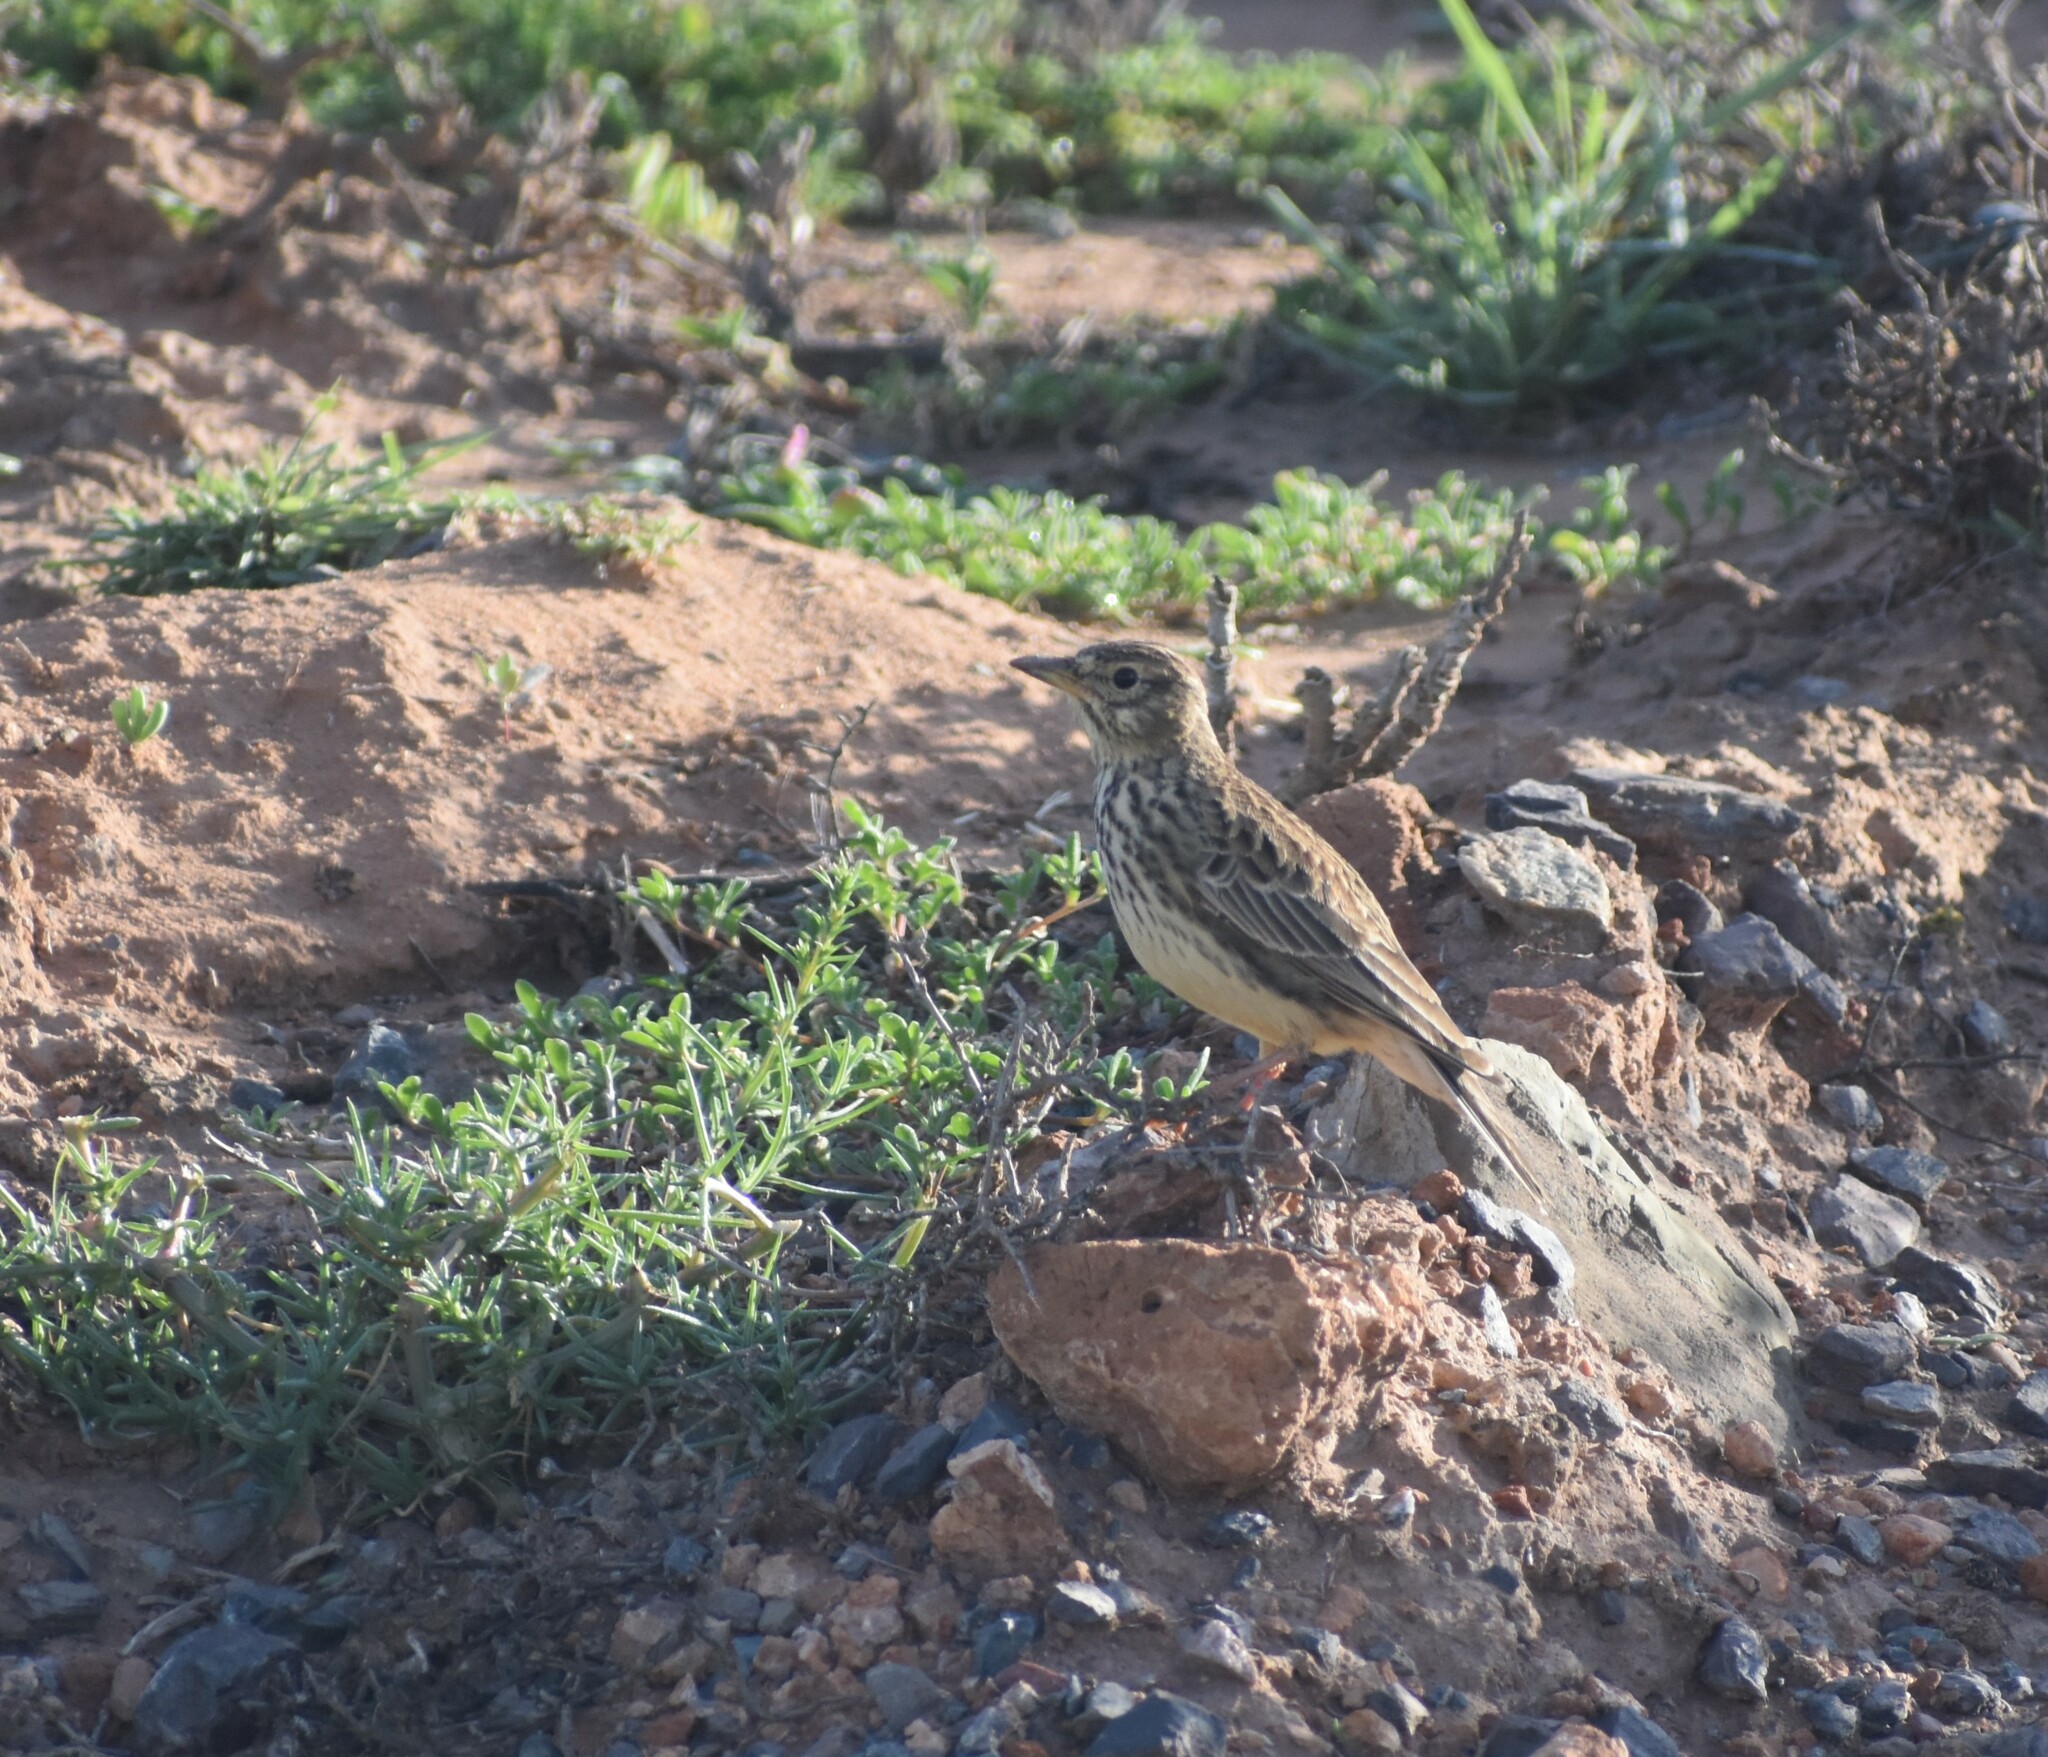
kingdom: Animalia
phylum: Chordata
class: Aves
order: Passeriformes
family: Alaudidae
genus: Galerida
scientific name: Galerida magnirostris
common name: Large-billed lark
